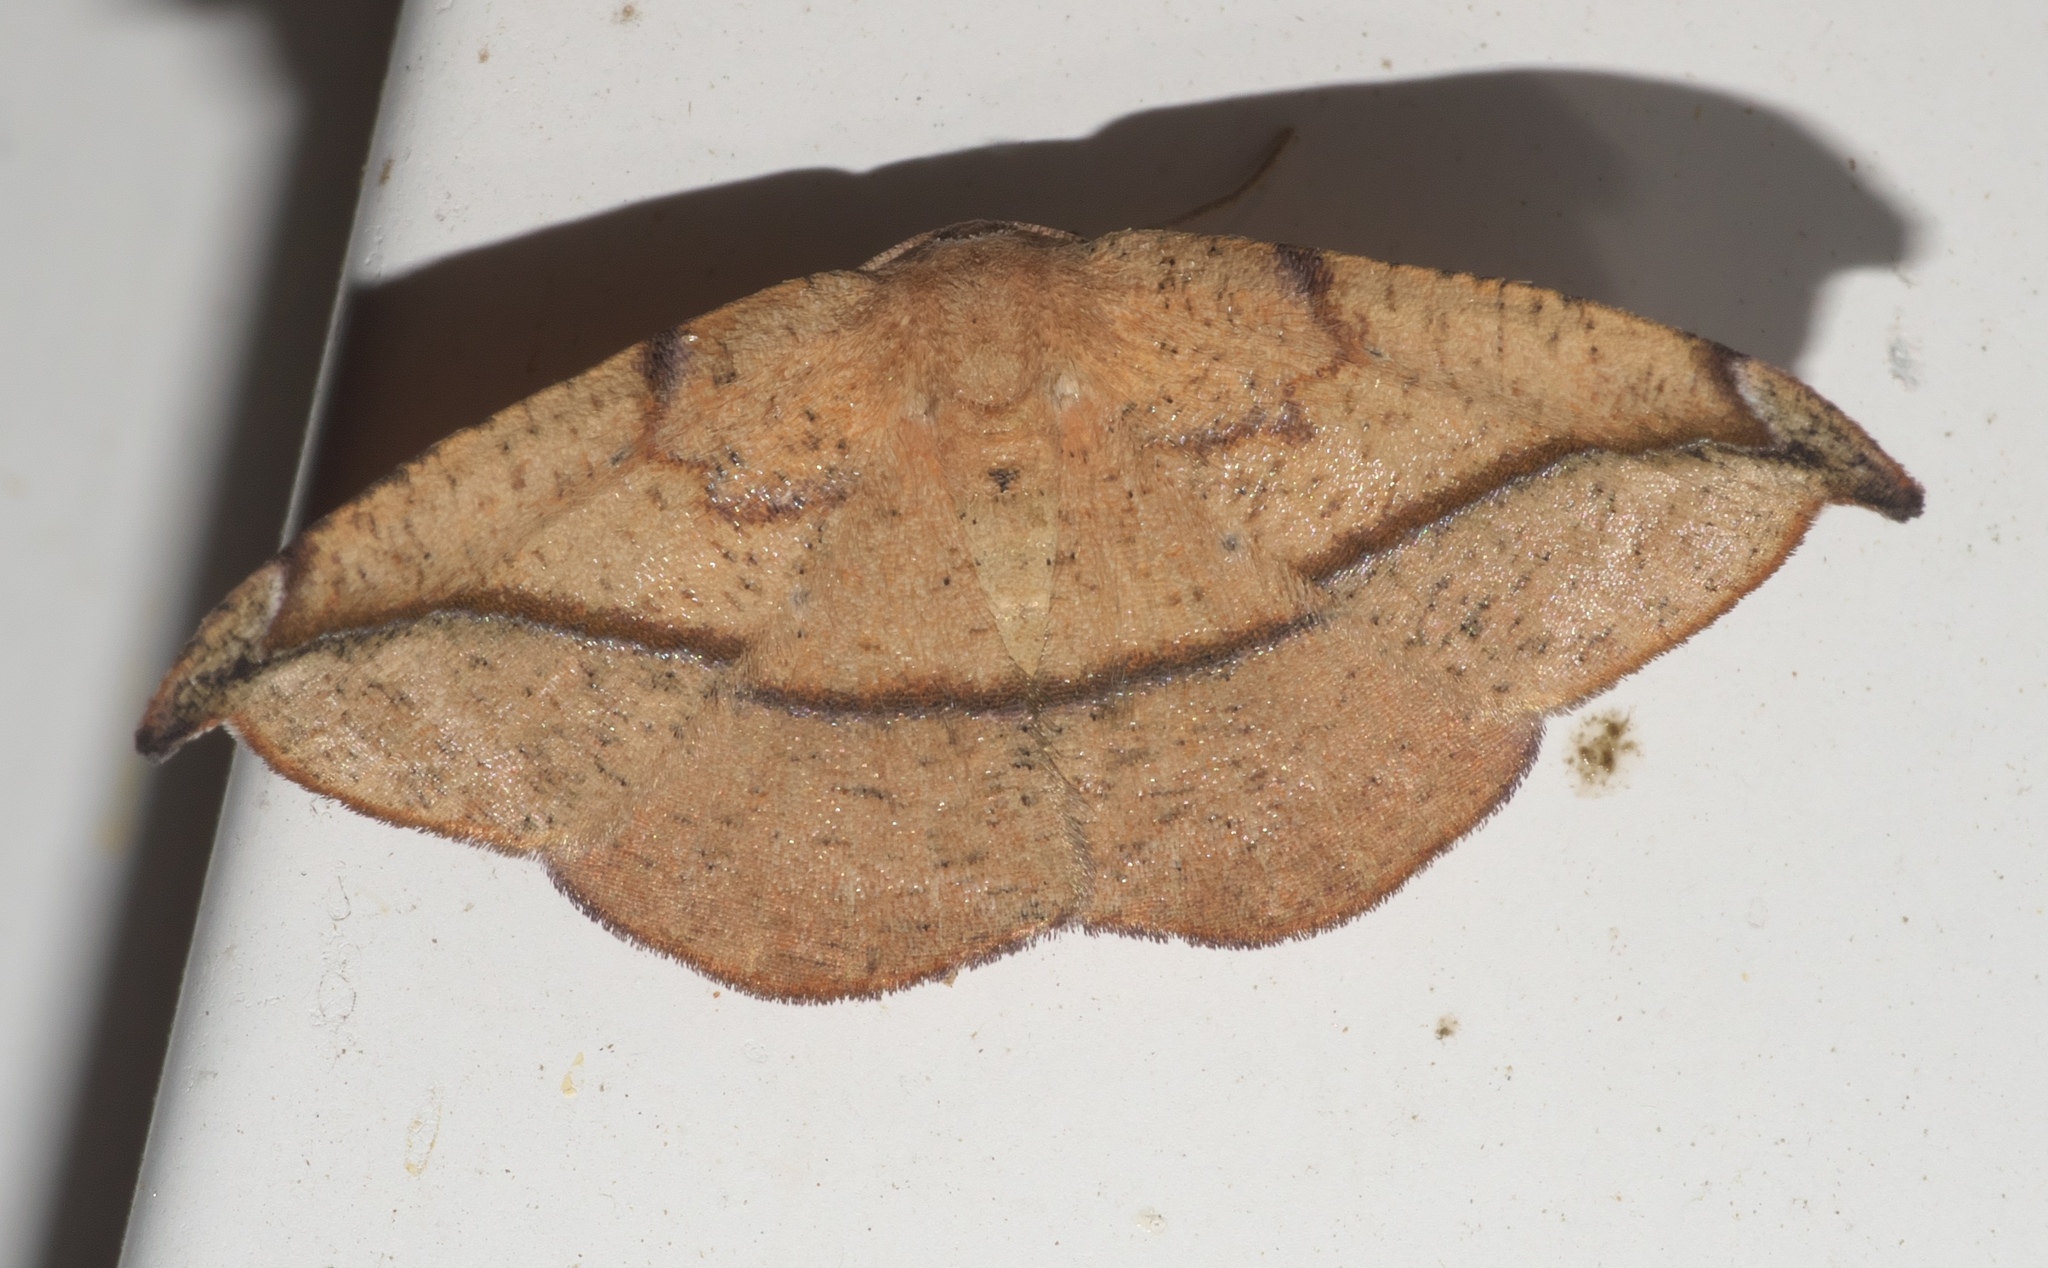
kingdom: Animalia
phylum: Arthropoda
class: Insecta
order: Lepidoptera
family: Geometridae
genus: Patalene
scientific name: Patalene olyzonaria
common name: Juniper geometer moth
